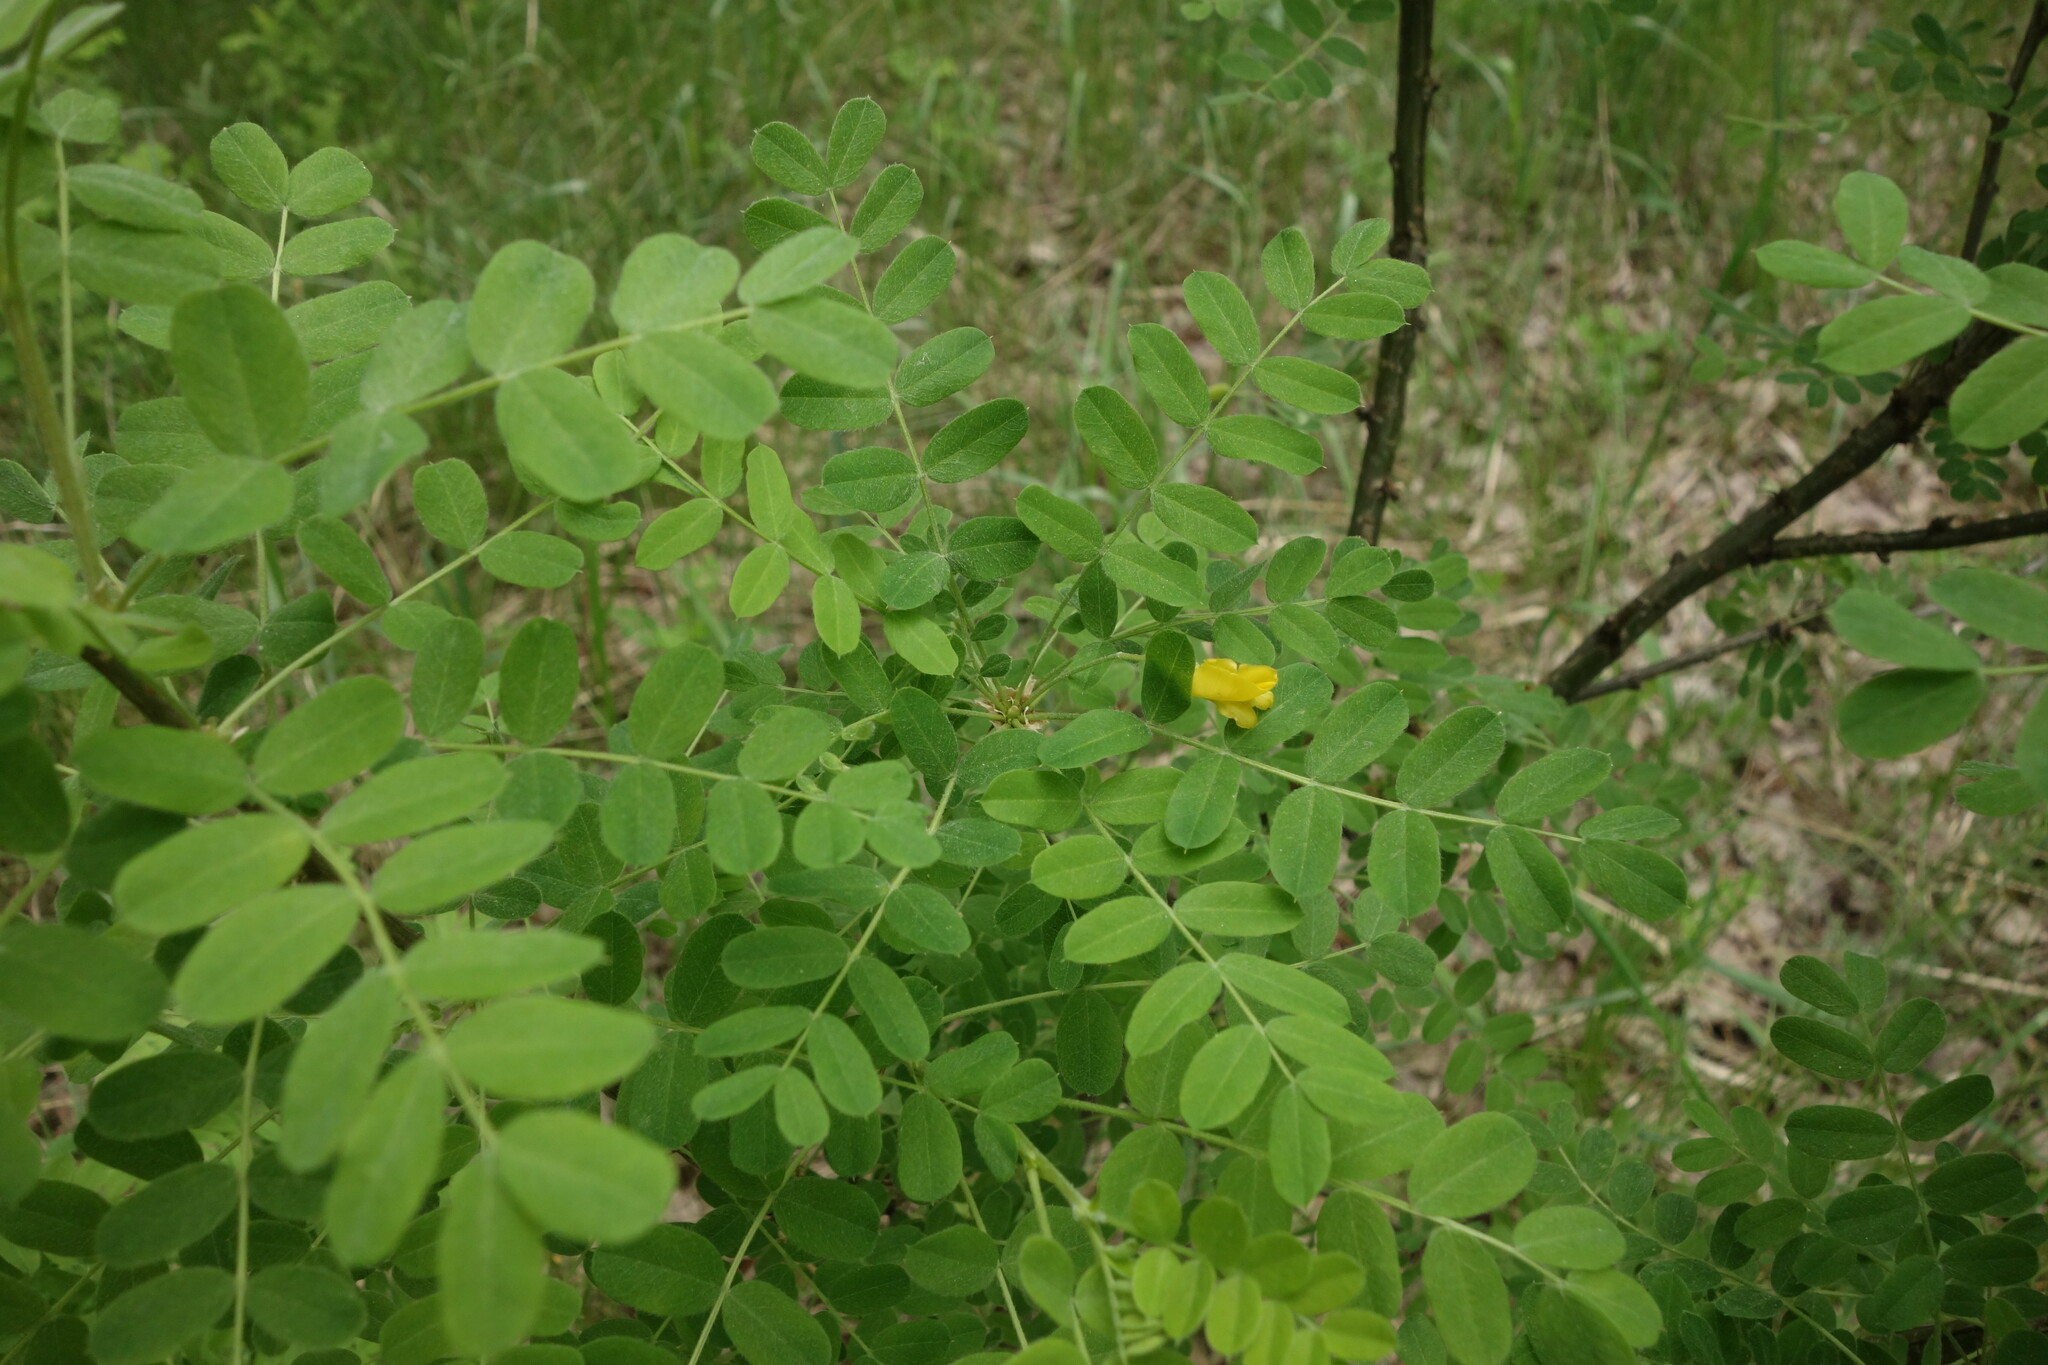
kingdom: Plantae
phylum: Tracheophyta
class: Magnoliopsida
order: Fabales
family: Fabaceae
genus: Caragana
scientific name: Caragana arborescens
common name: Siberian peashrub
